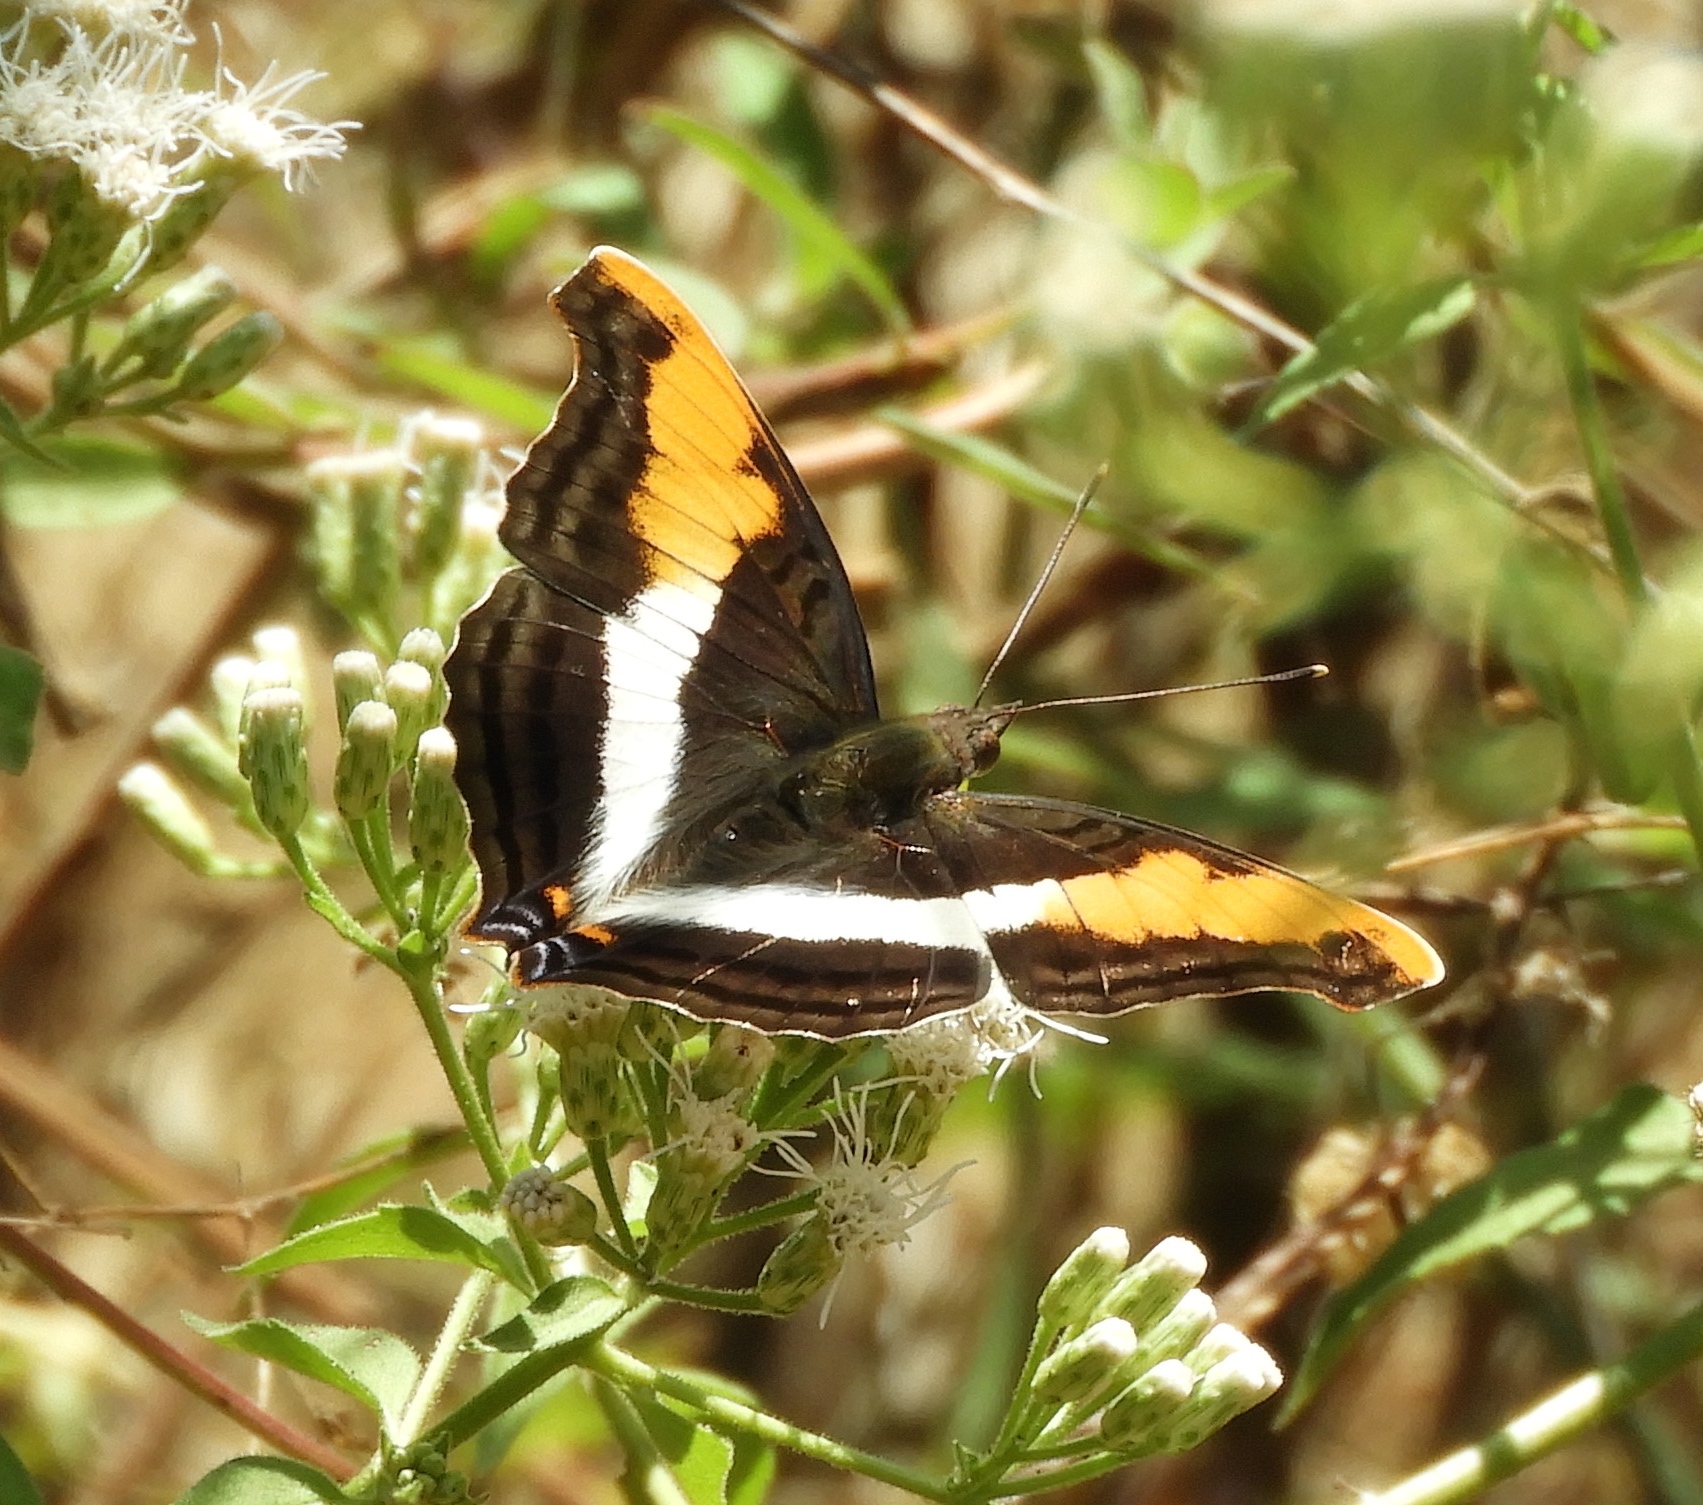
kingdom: Animalia
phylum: Arthropoda
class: Insecta
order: Lepidoptera
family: Nymphalidae
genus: Doxocopa
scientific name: Doxocopa laure
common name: Silver emperor
